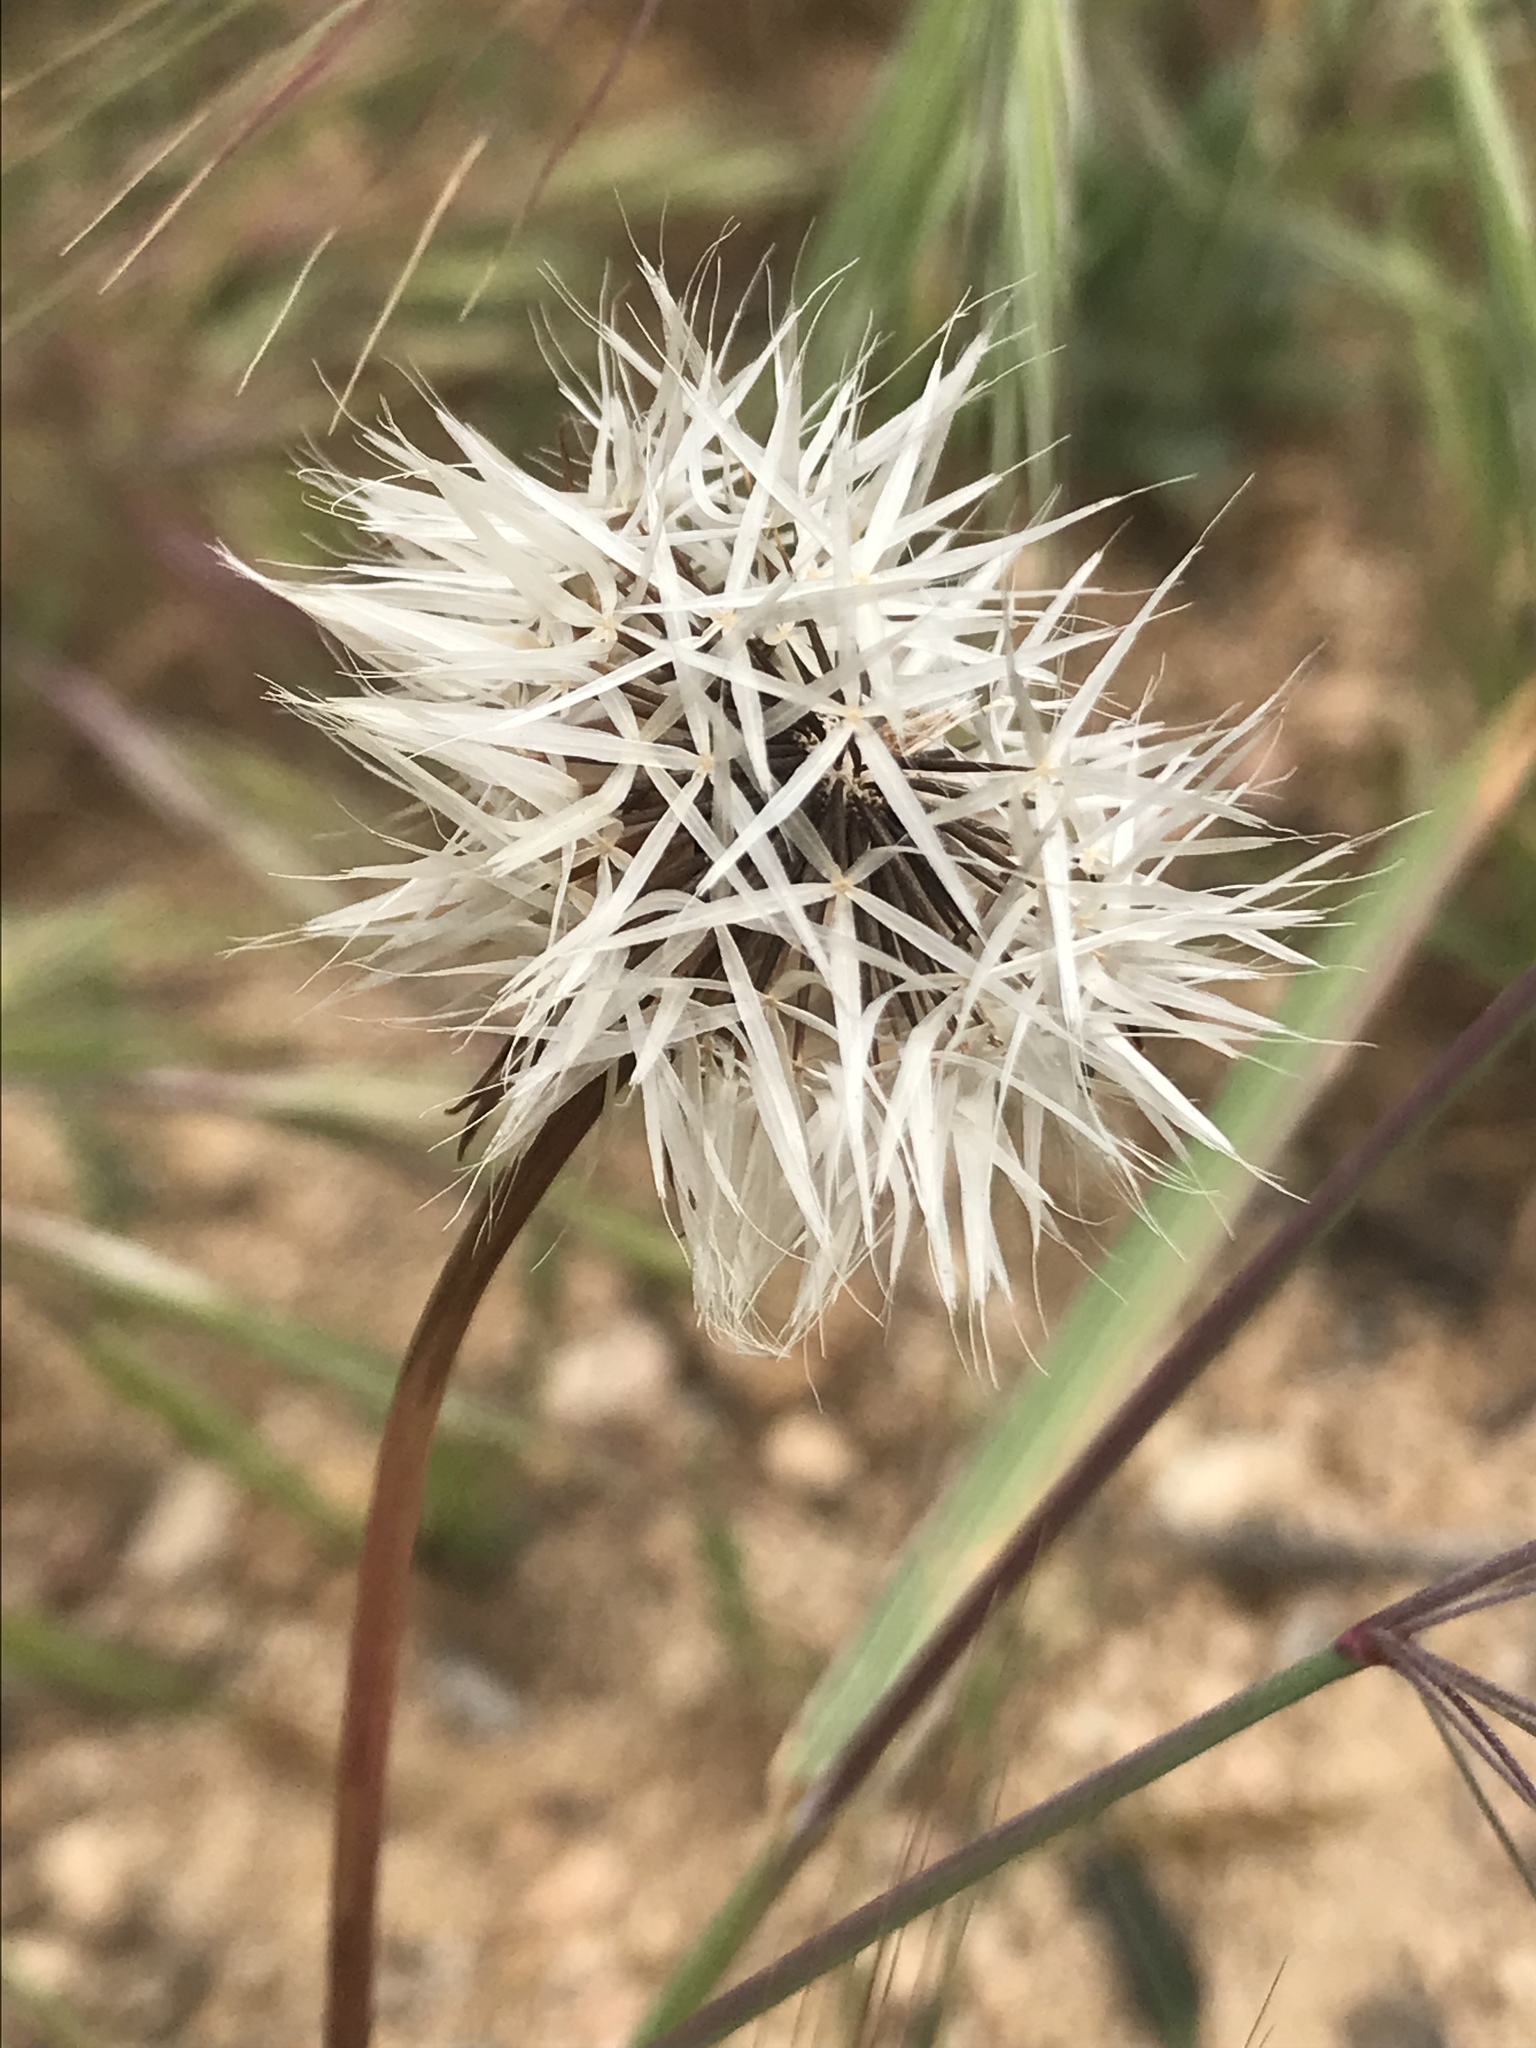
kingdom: Plantae
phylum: Tracheophyta
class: Magnoliopsida
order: Asterales
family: Asteraceae
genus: Microseris
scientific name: Microseris lindleyi
